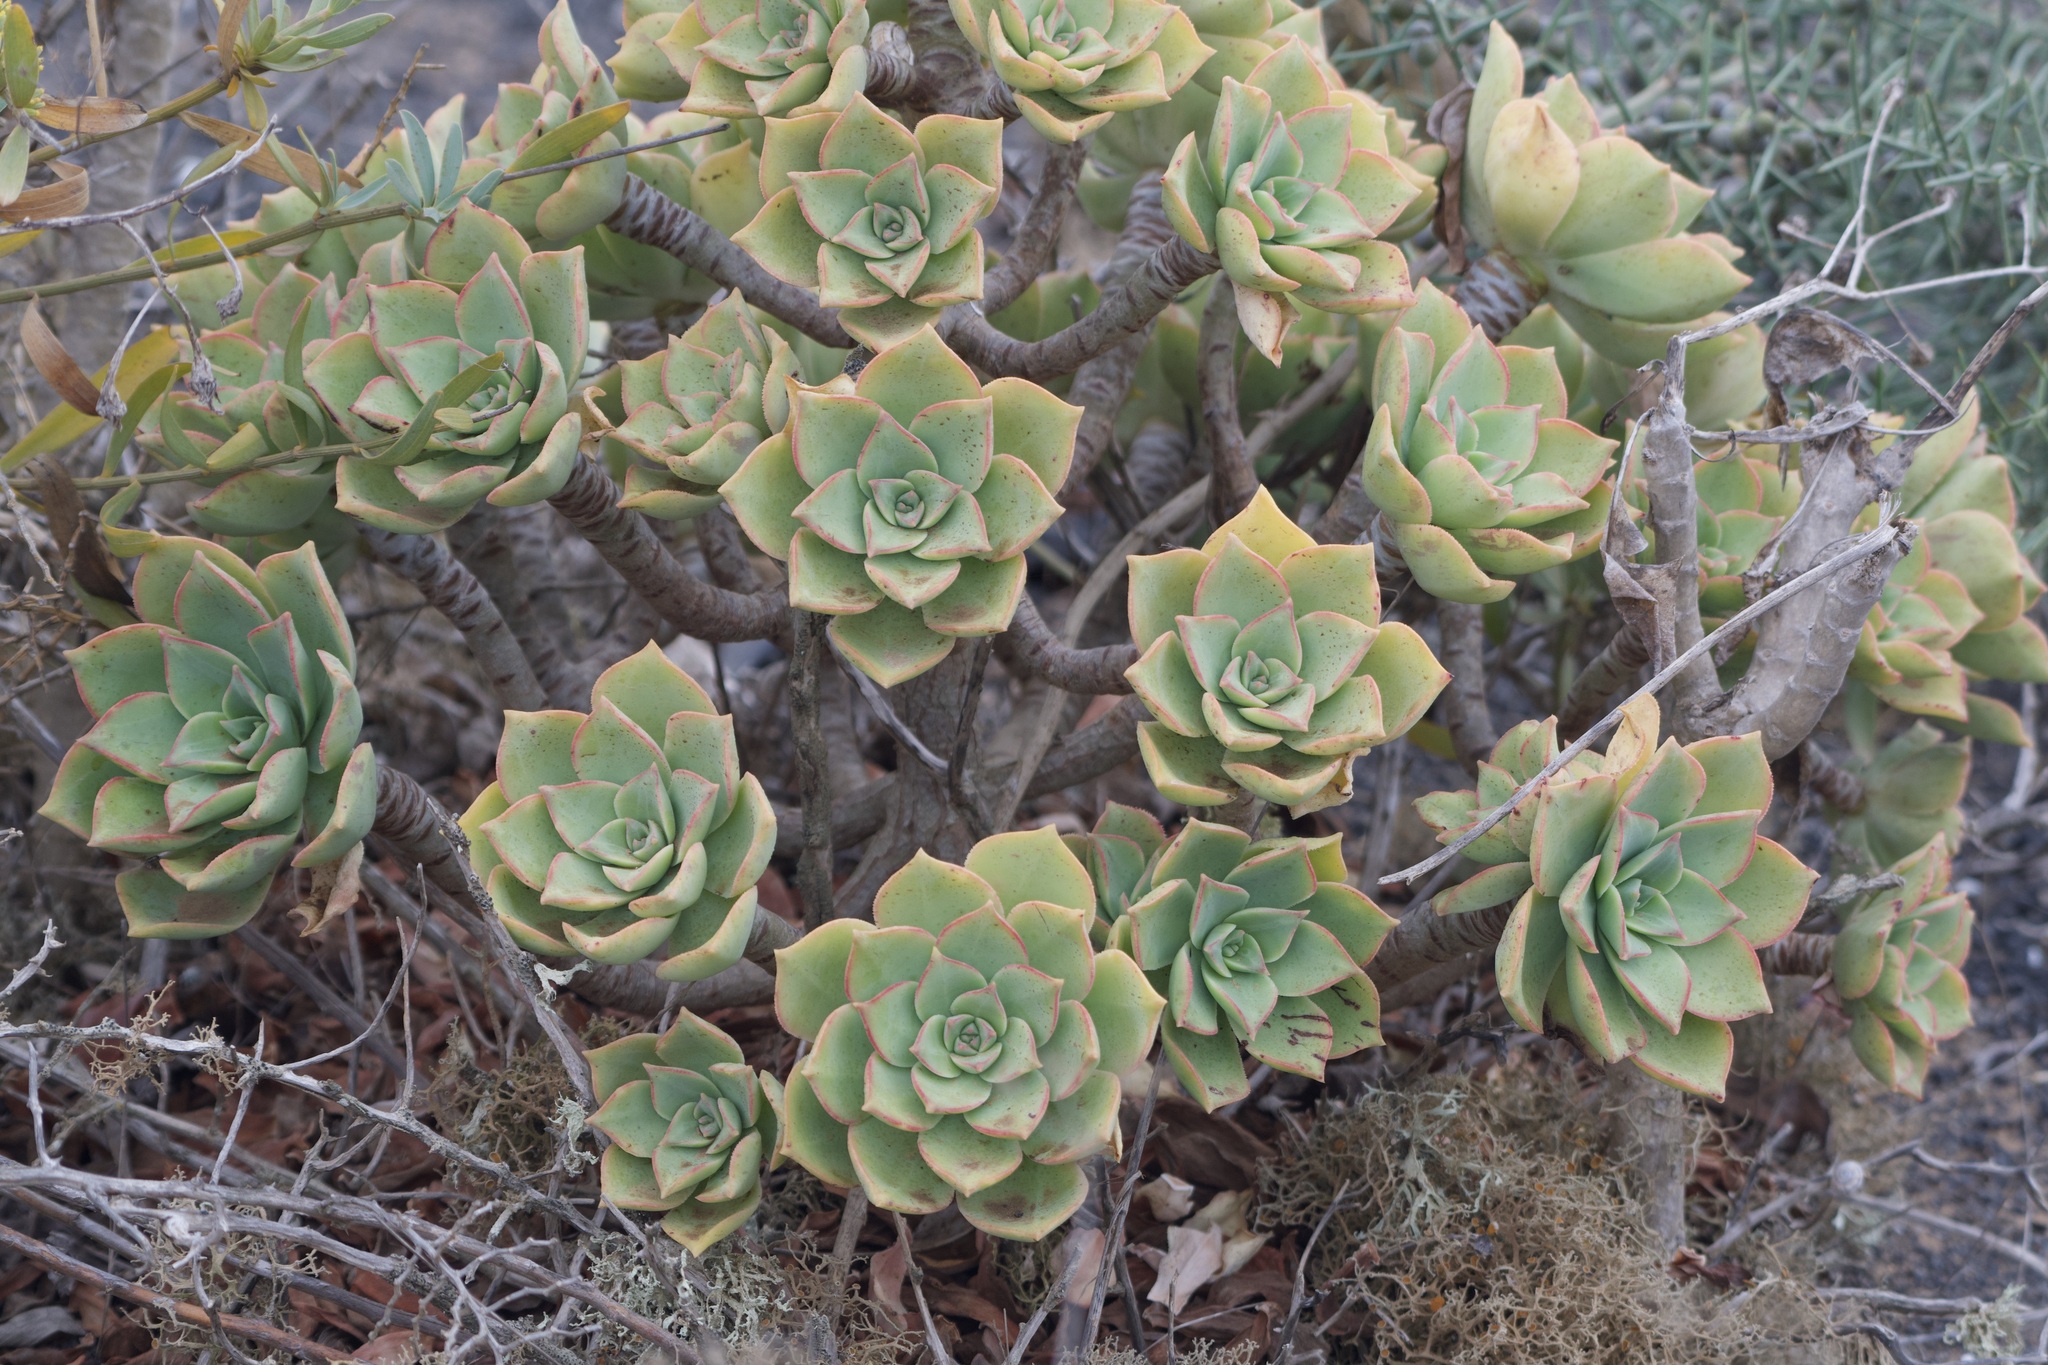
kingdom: Plantae
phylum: Tracheophyta
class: Magnoliopsida
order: Saxifragales
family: Crassulaceae
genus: Aeonium
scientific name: Aeonium lancerottense
